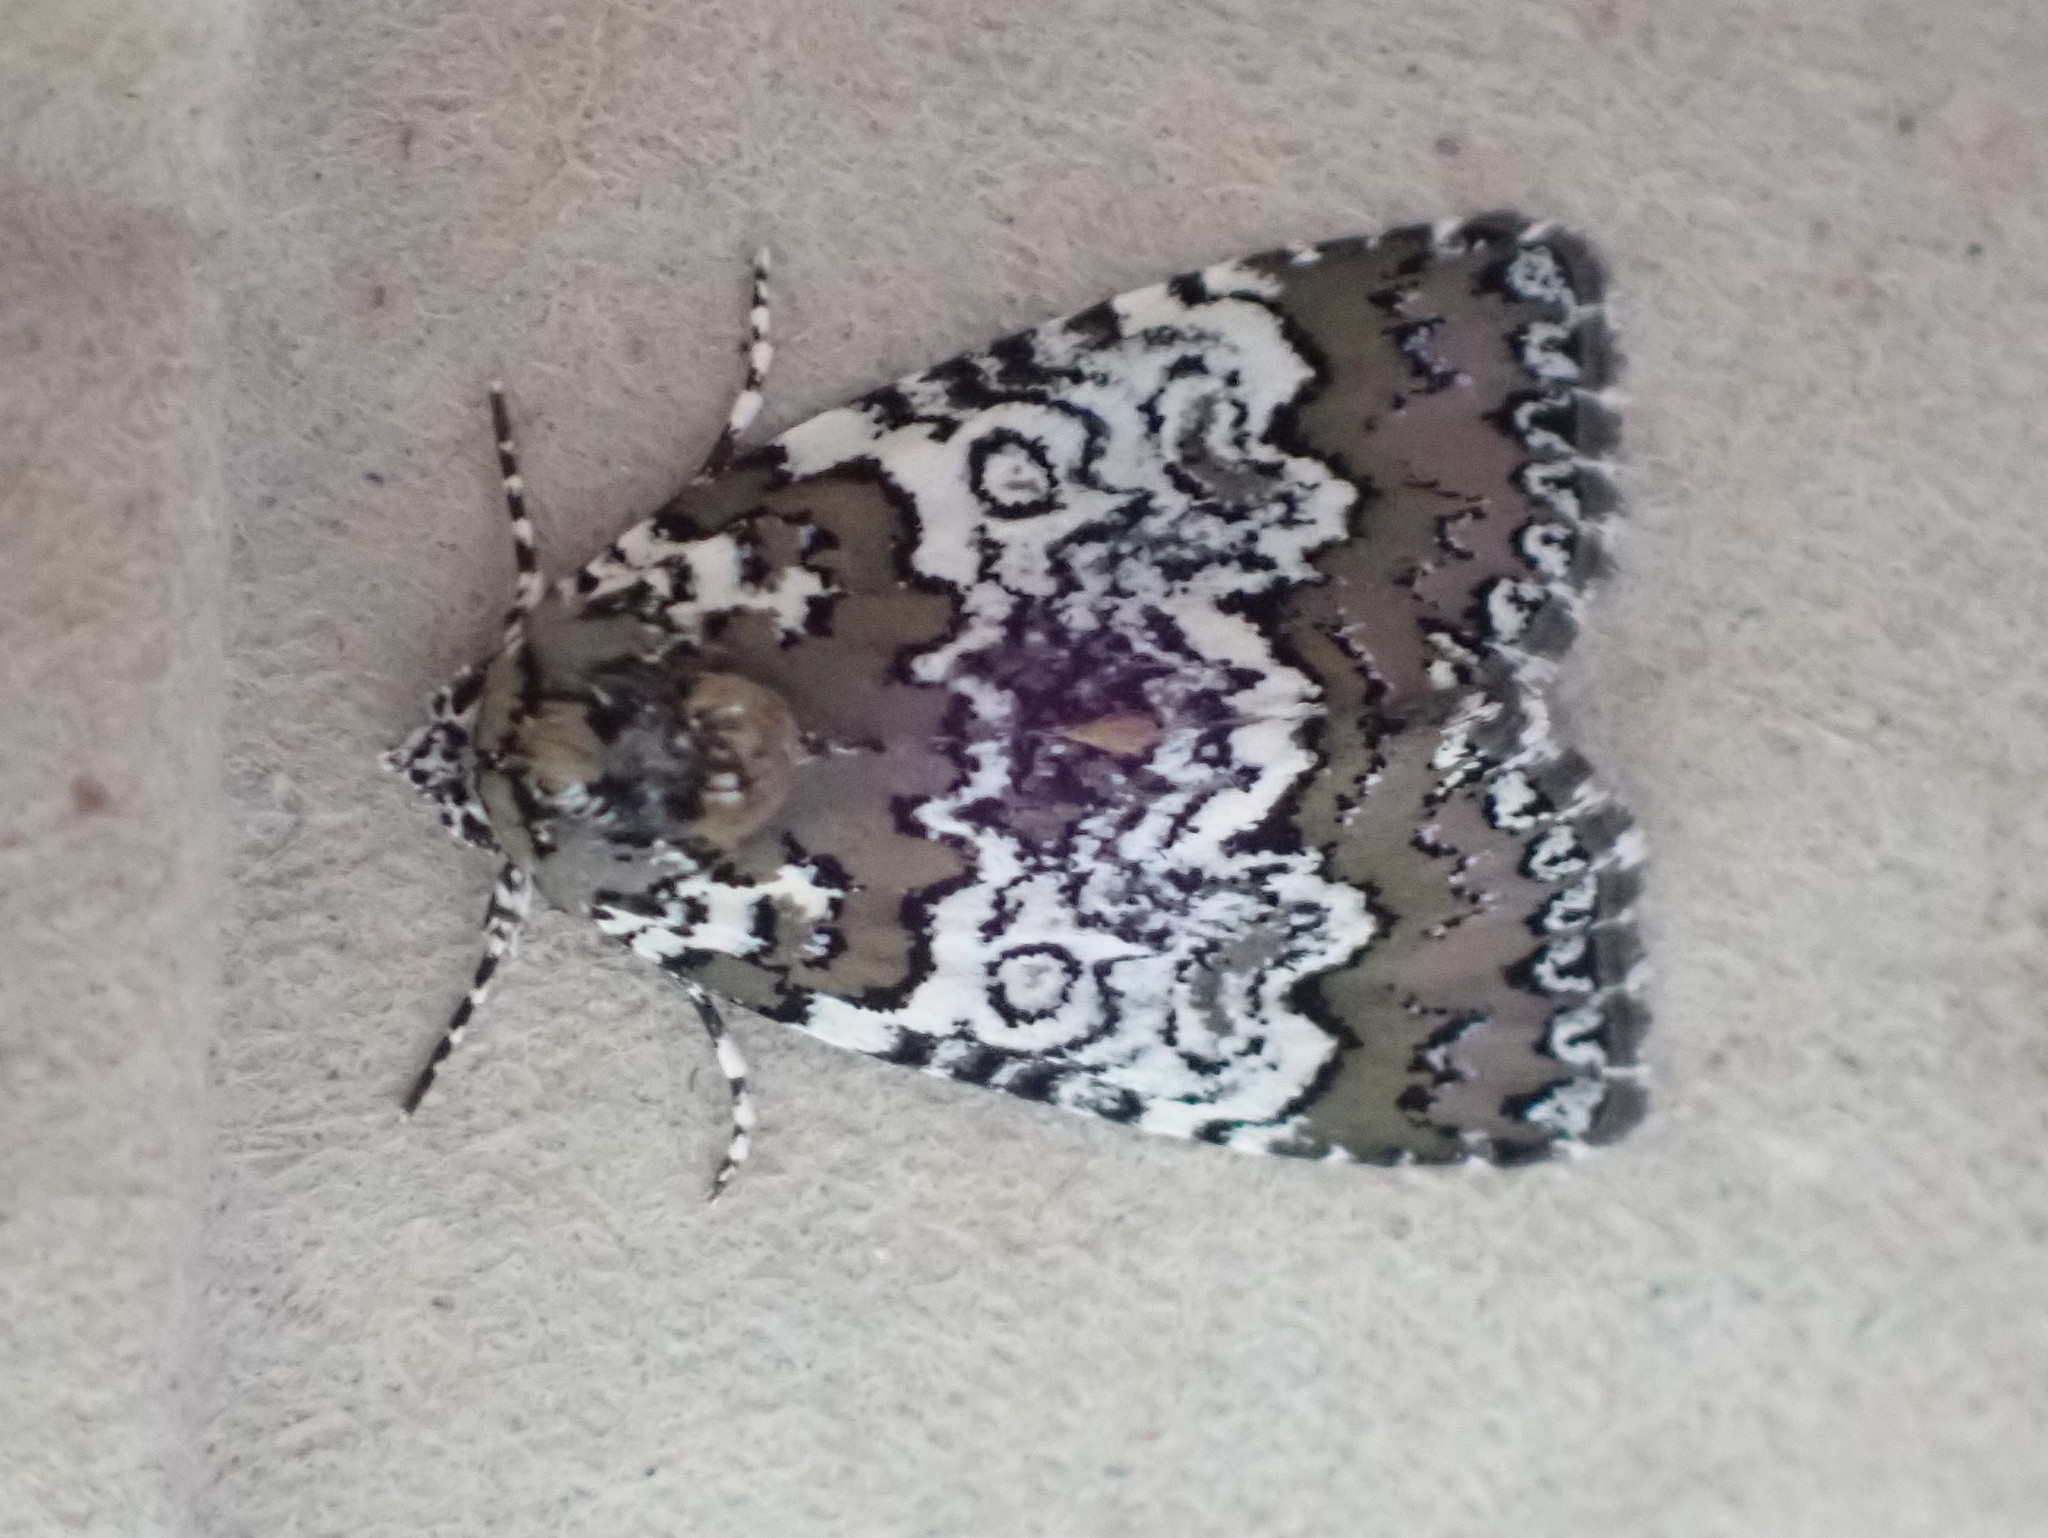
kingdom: Animalia
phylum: Arthropoda
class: Insecta
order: Lepidoptera
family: Noctuidae
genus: Cerma
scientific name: Cerma cora
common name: Bird dropping moth
